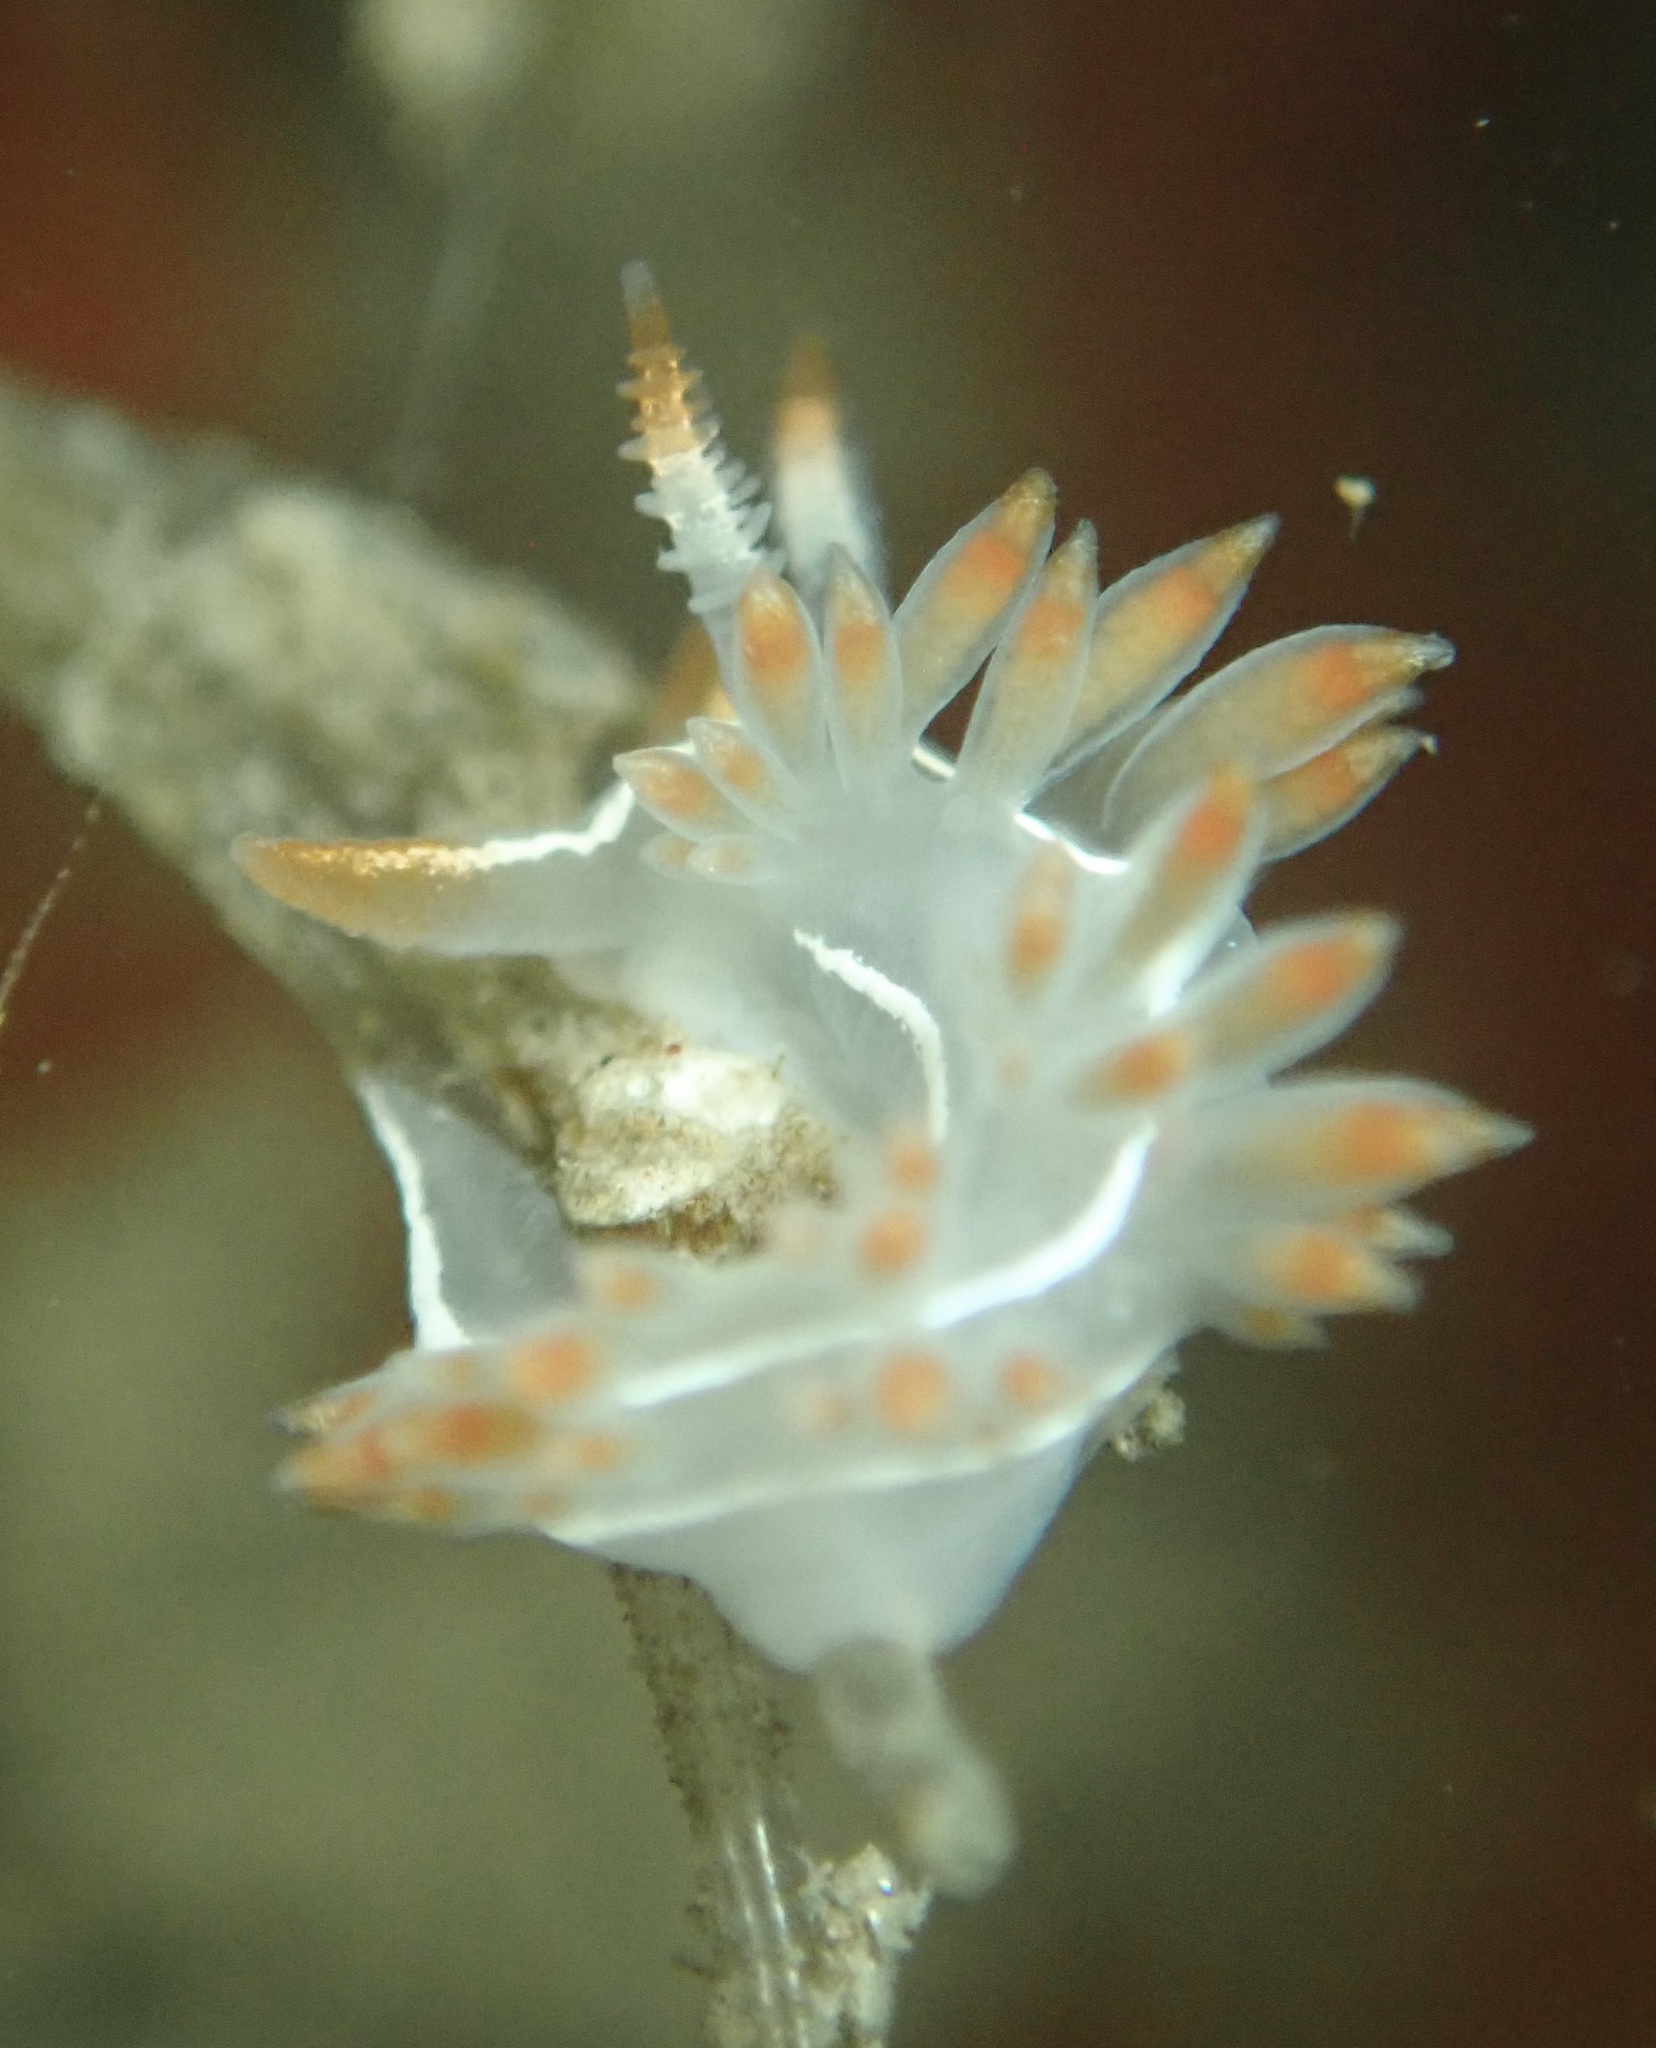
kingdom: Animalia
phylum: Mollusca
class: Gastropoda
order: Nudibranchia
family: Coryphellidae
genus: Coryphella
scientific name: Coryphella trilineata
